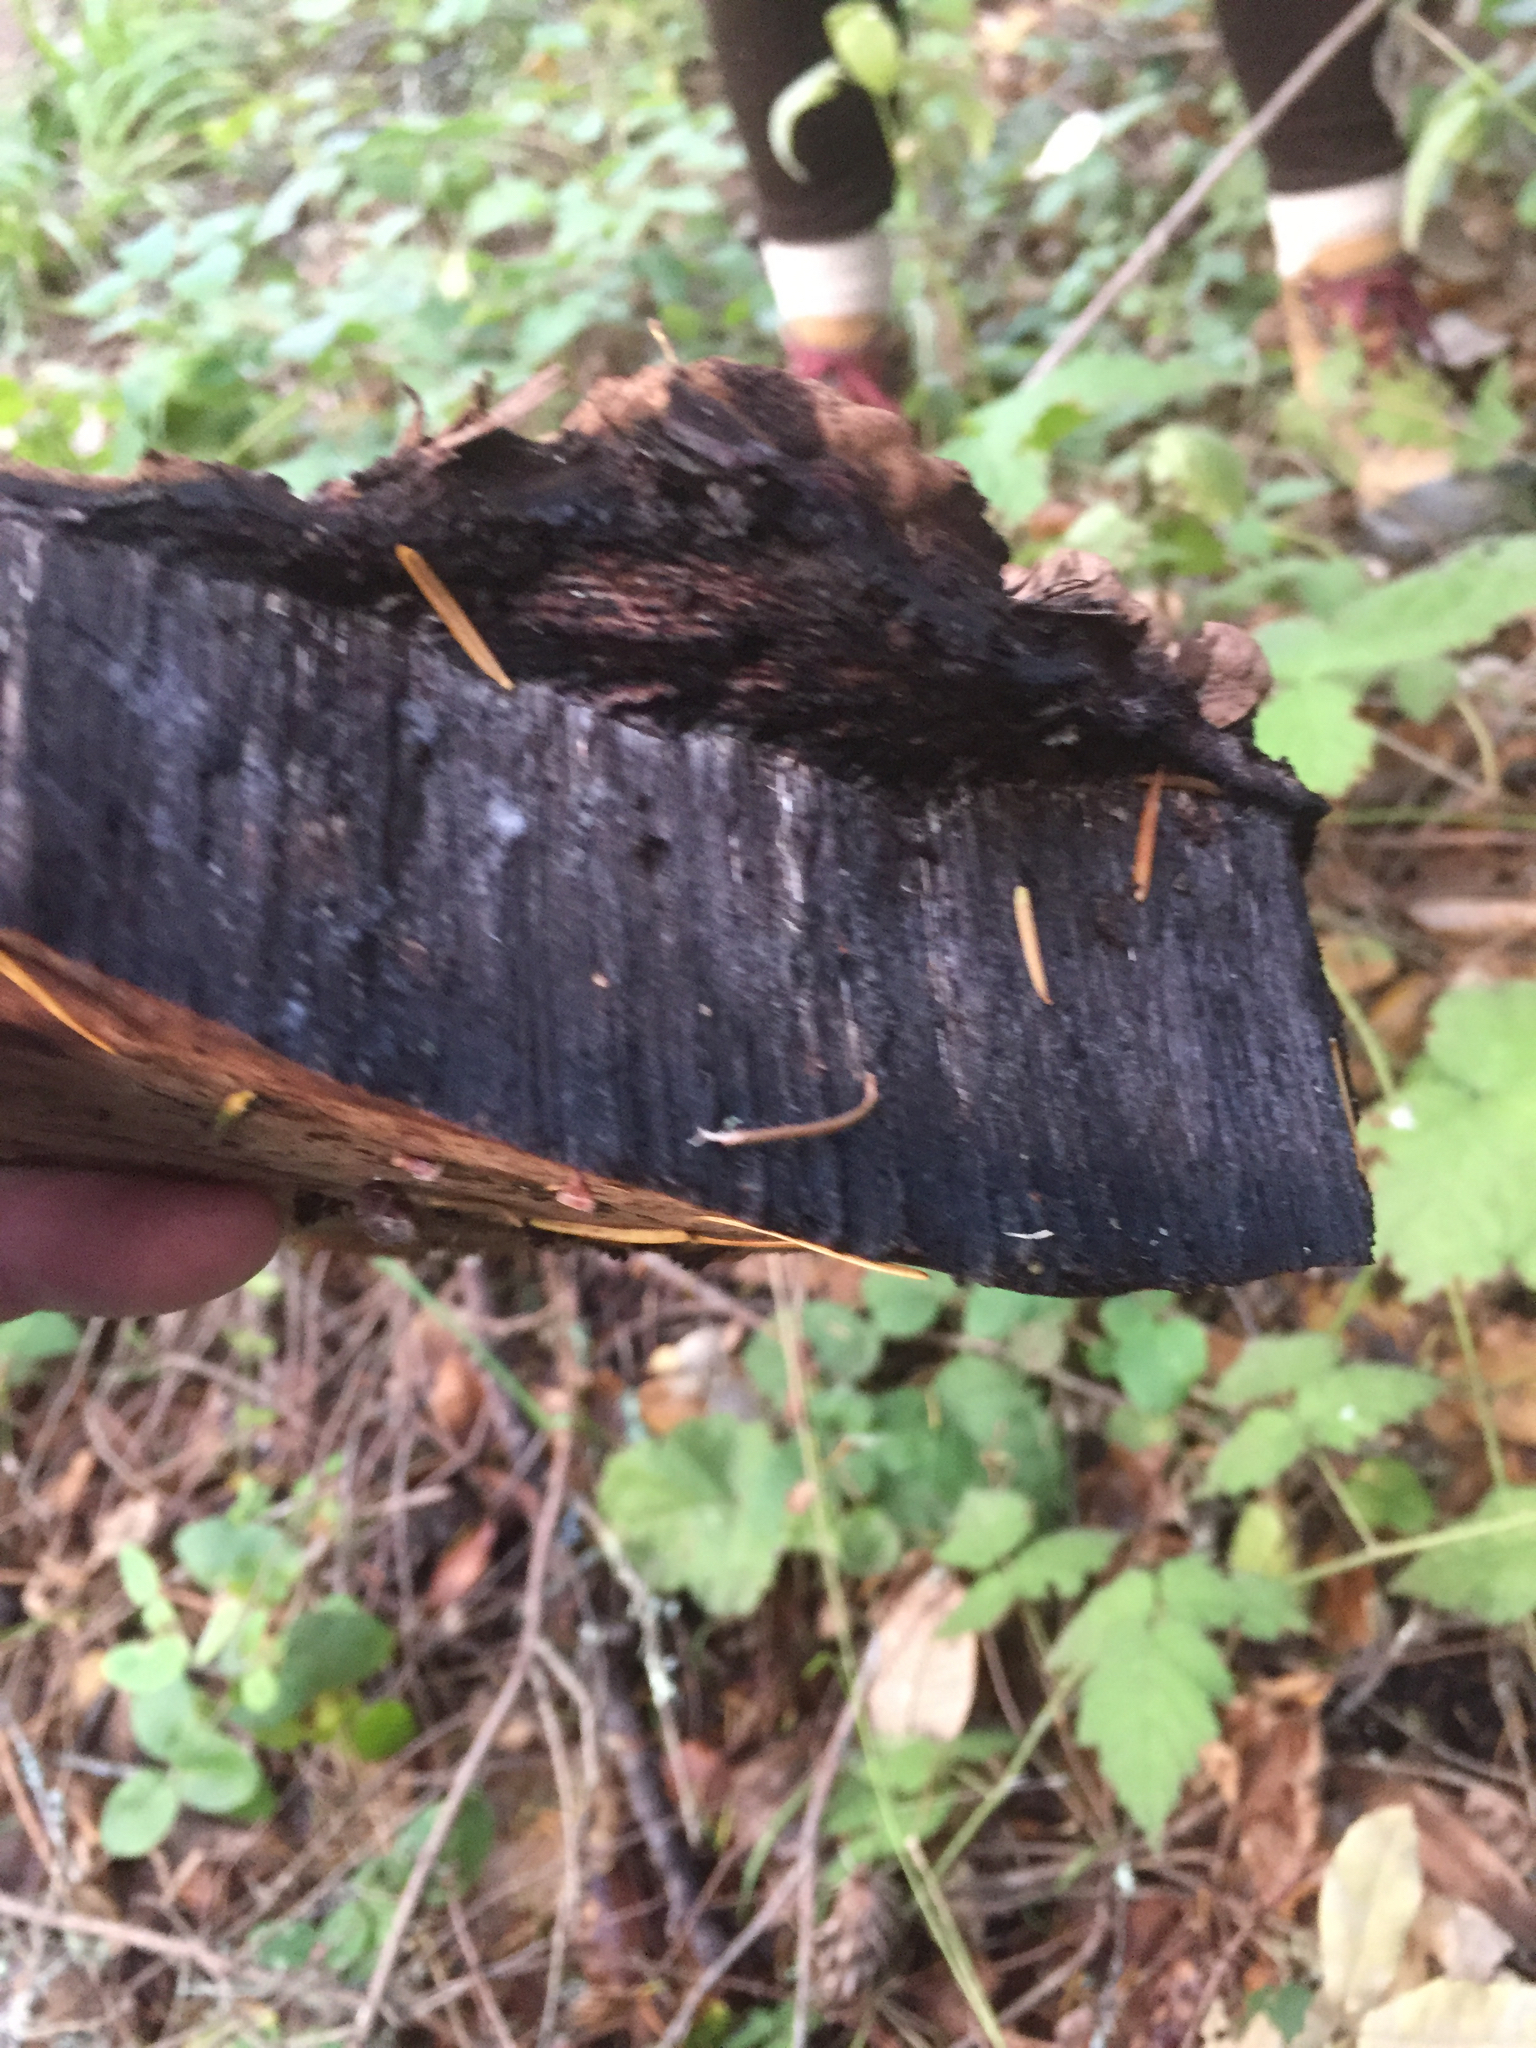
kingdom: Fungi
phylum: Basidiomycota
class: Agaricomycetes
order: Polyporales
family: Polyporaceae
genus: Ganoderma
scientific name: Ganoderma applanatum
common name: Artist's bracket
